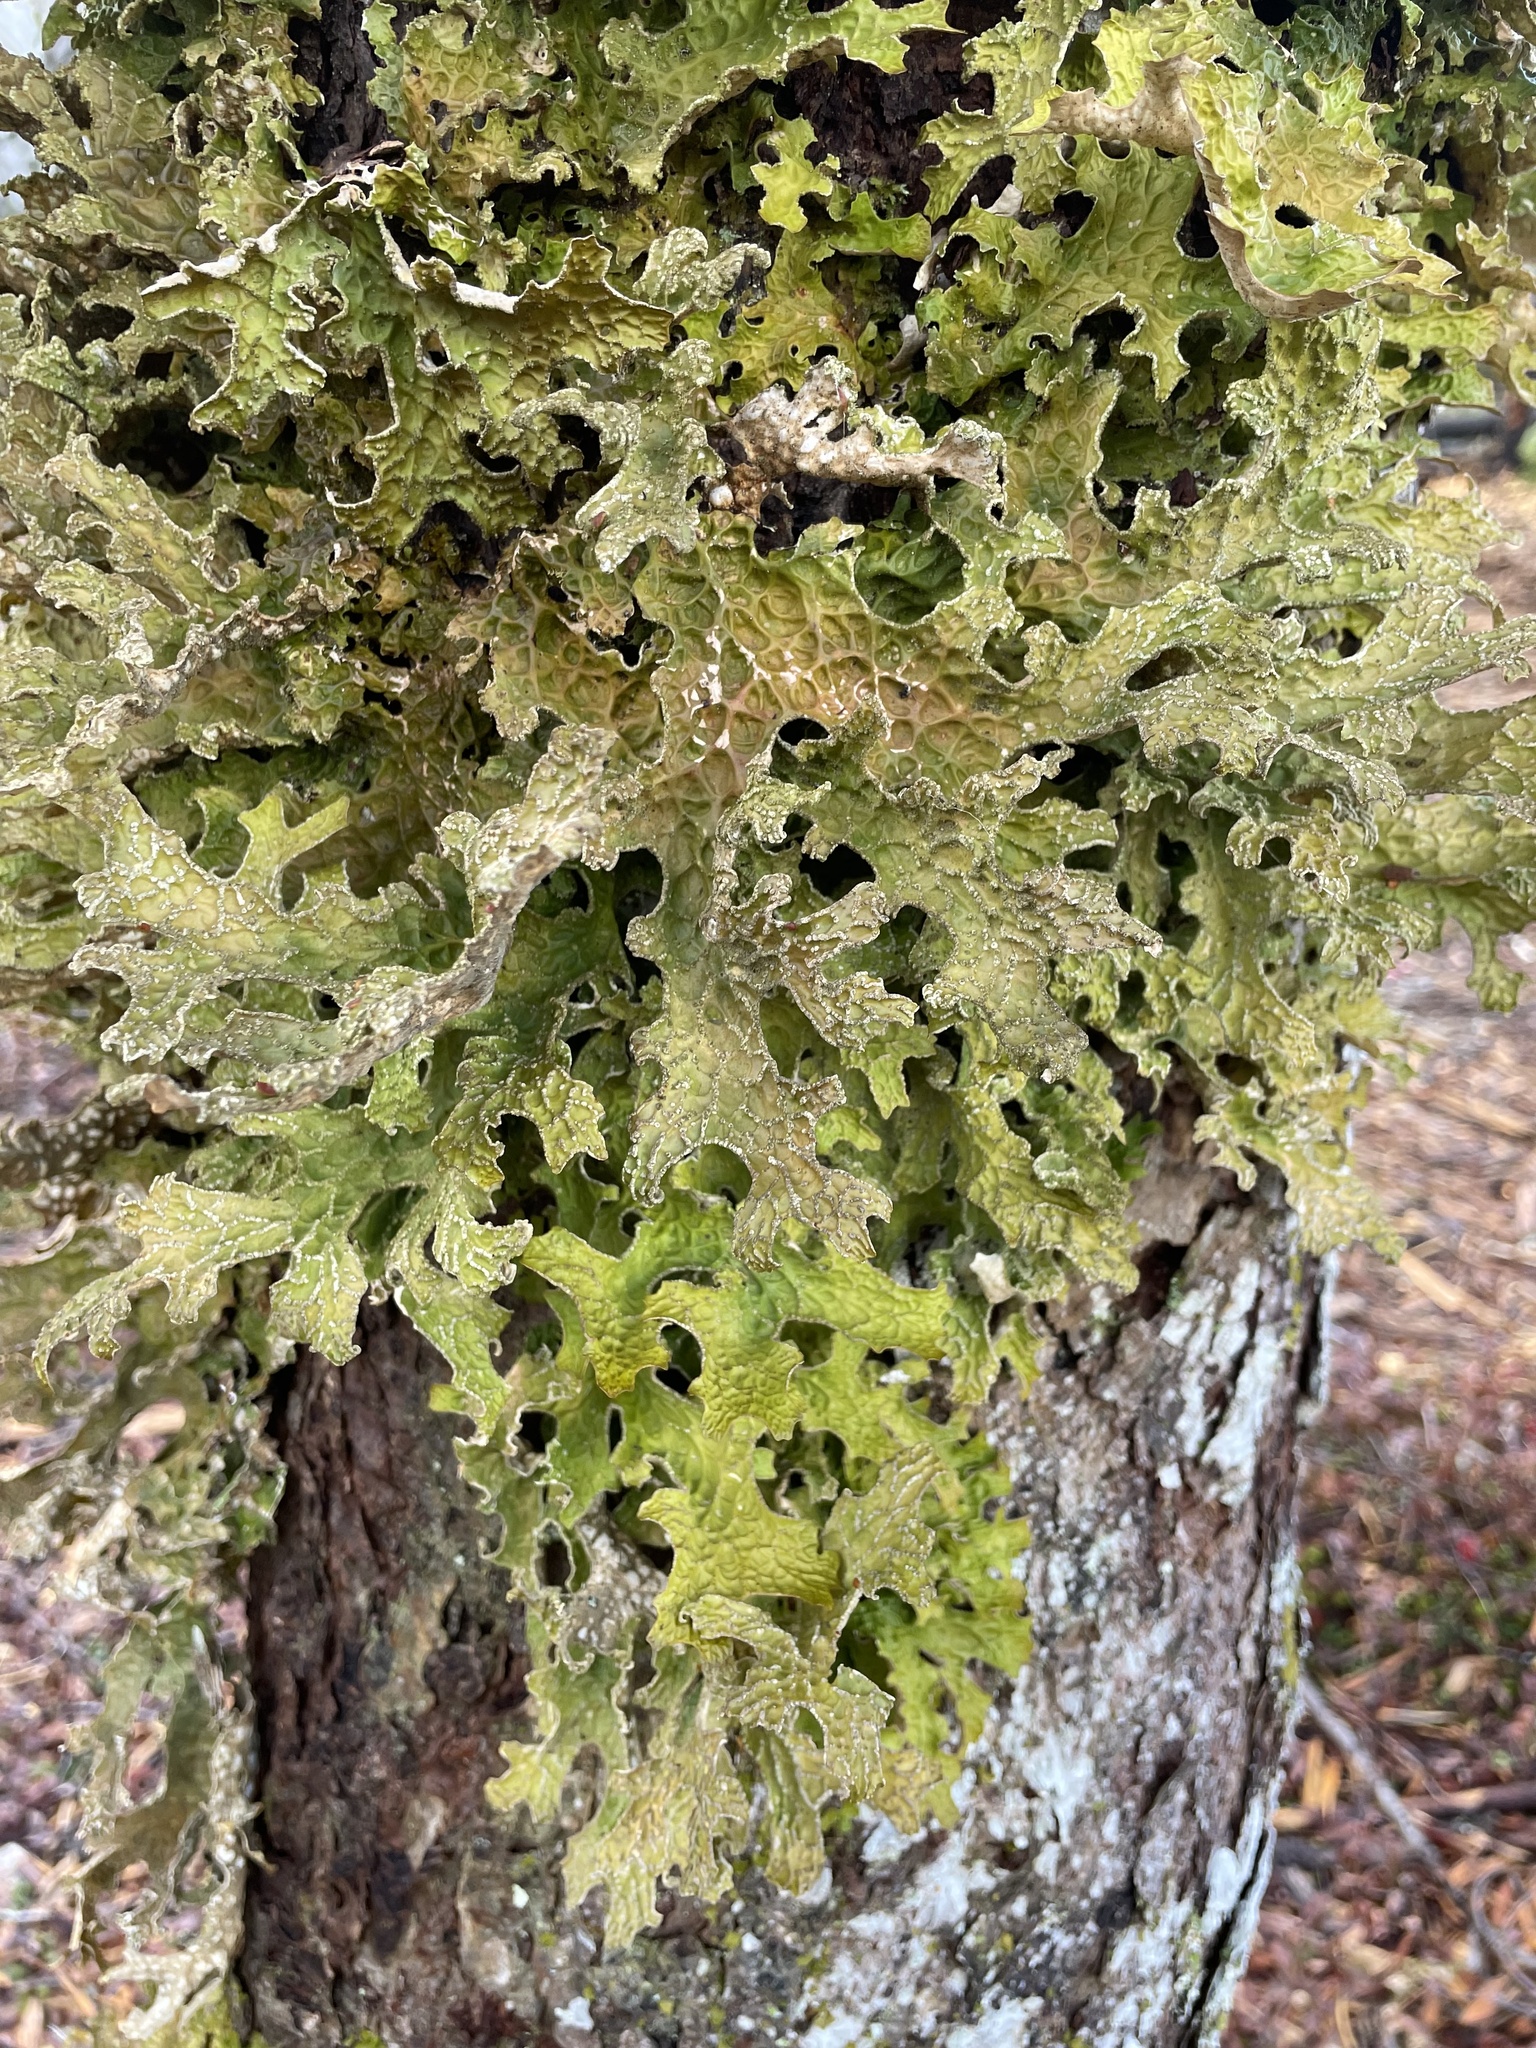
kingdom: Fungi
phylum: Ascomycota
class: Lecanoromycetes
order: Peltigerales
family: Lobariaceae
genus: Lobaria
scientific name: Lobaria pulmonaria
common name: Lungwort
